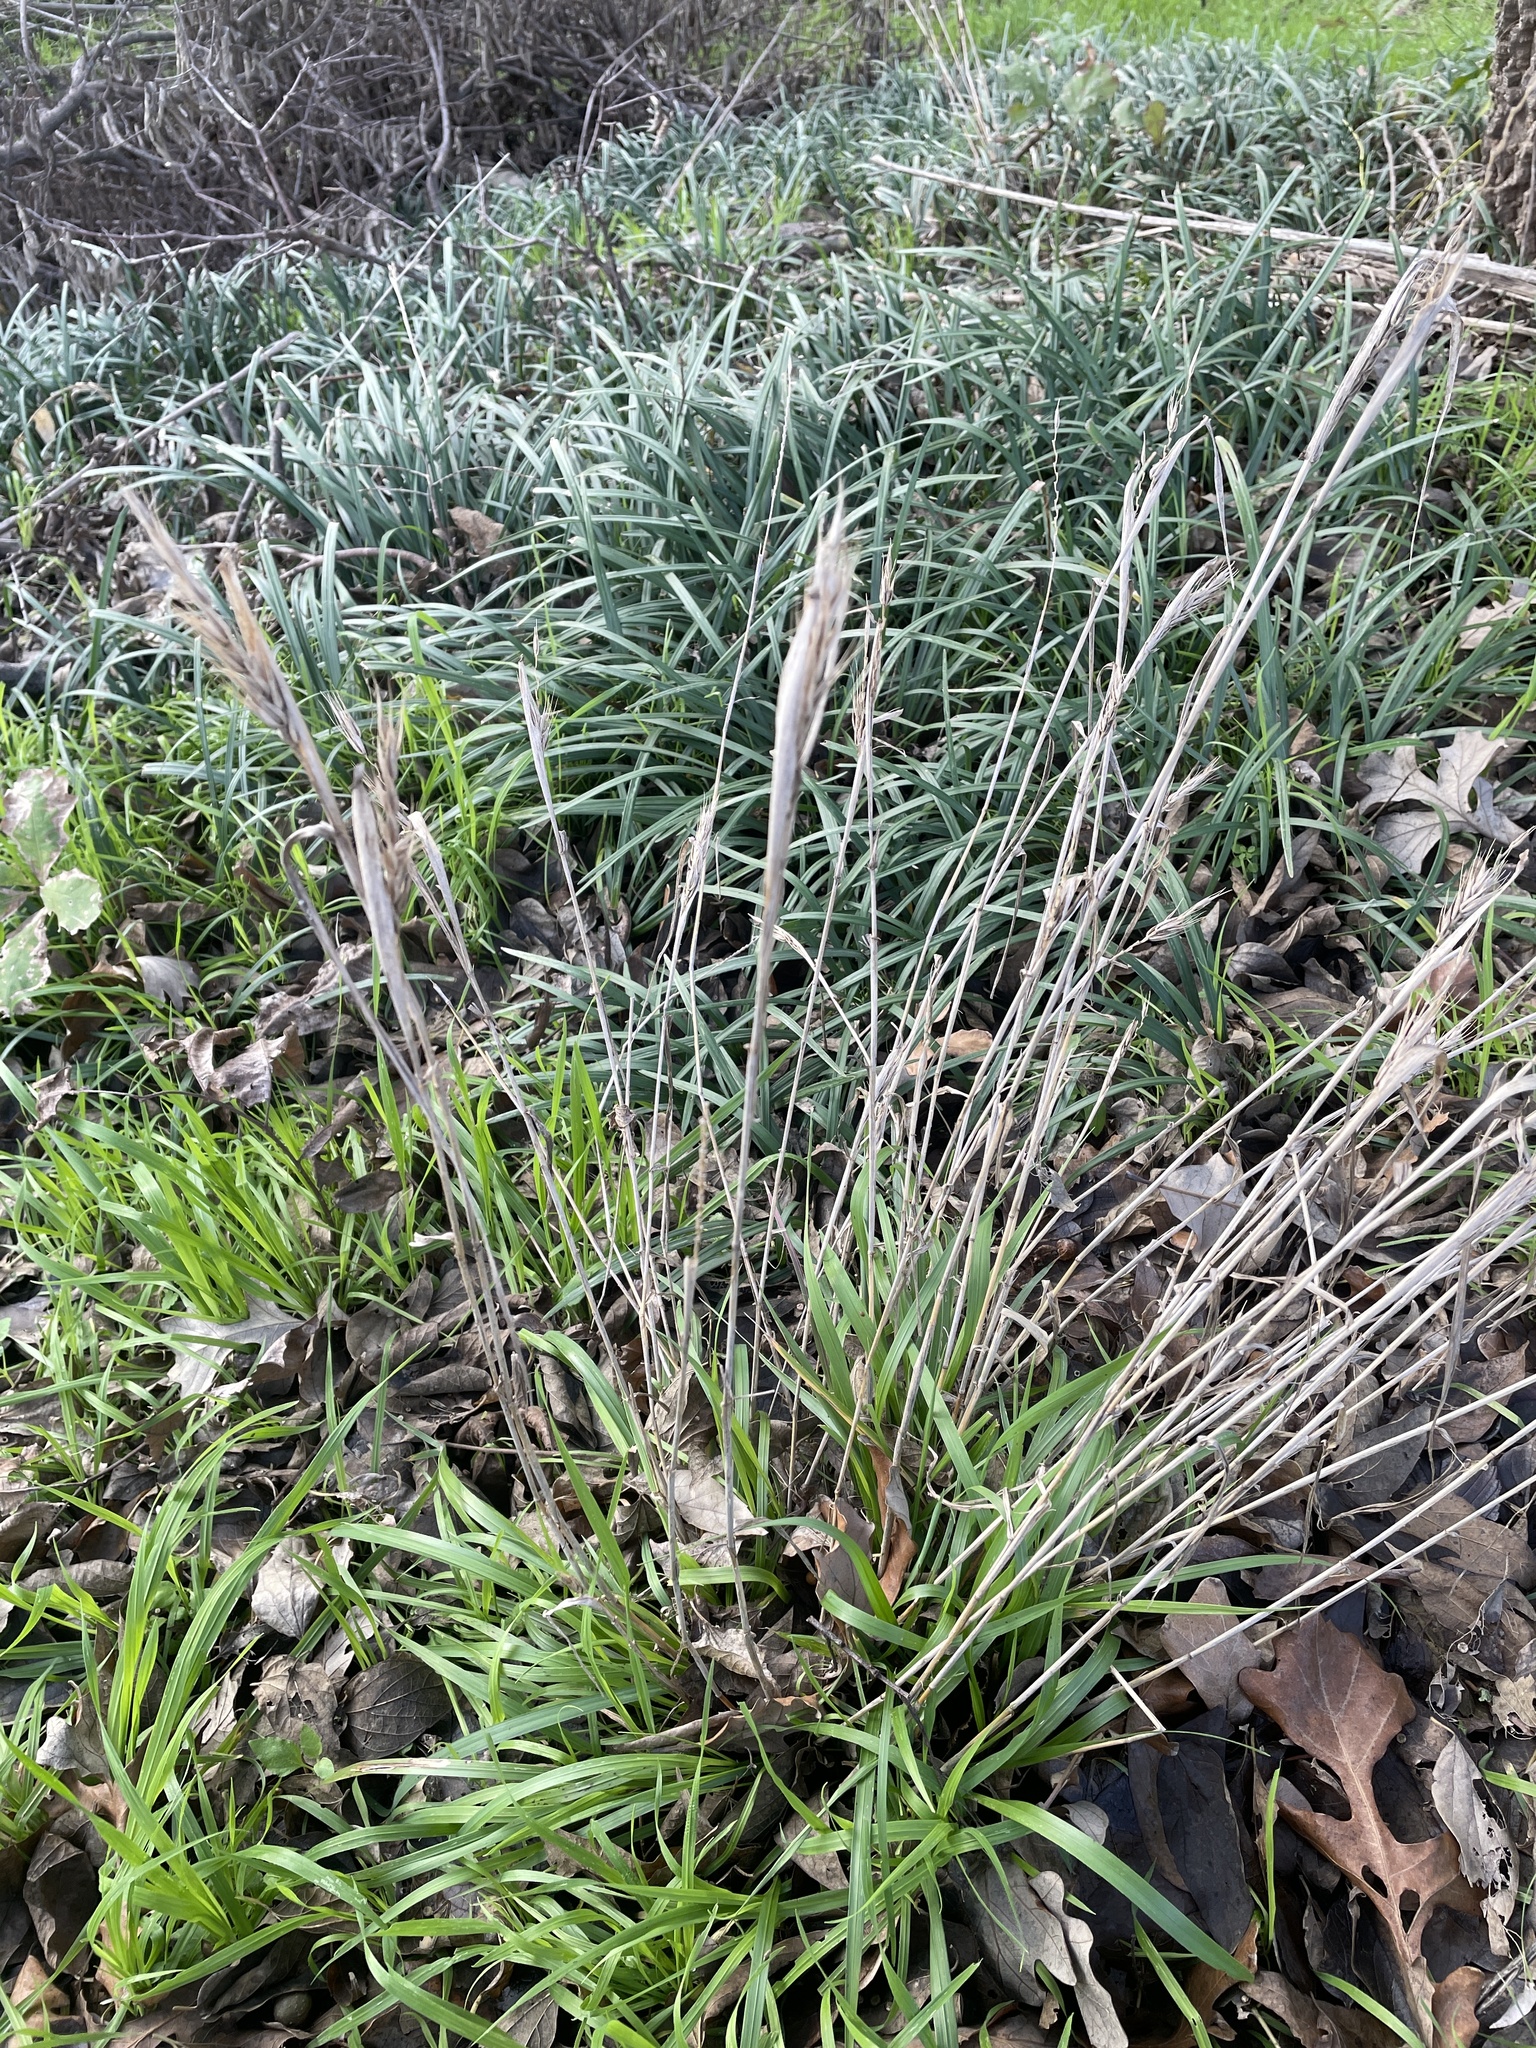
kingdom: Plantae
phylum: Tracheophyta
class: Liliopsida
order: Poales
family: Poaceae
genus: Elymus
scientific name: Elymus virginicus
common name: Common eastern wildrye
